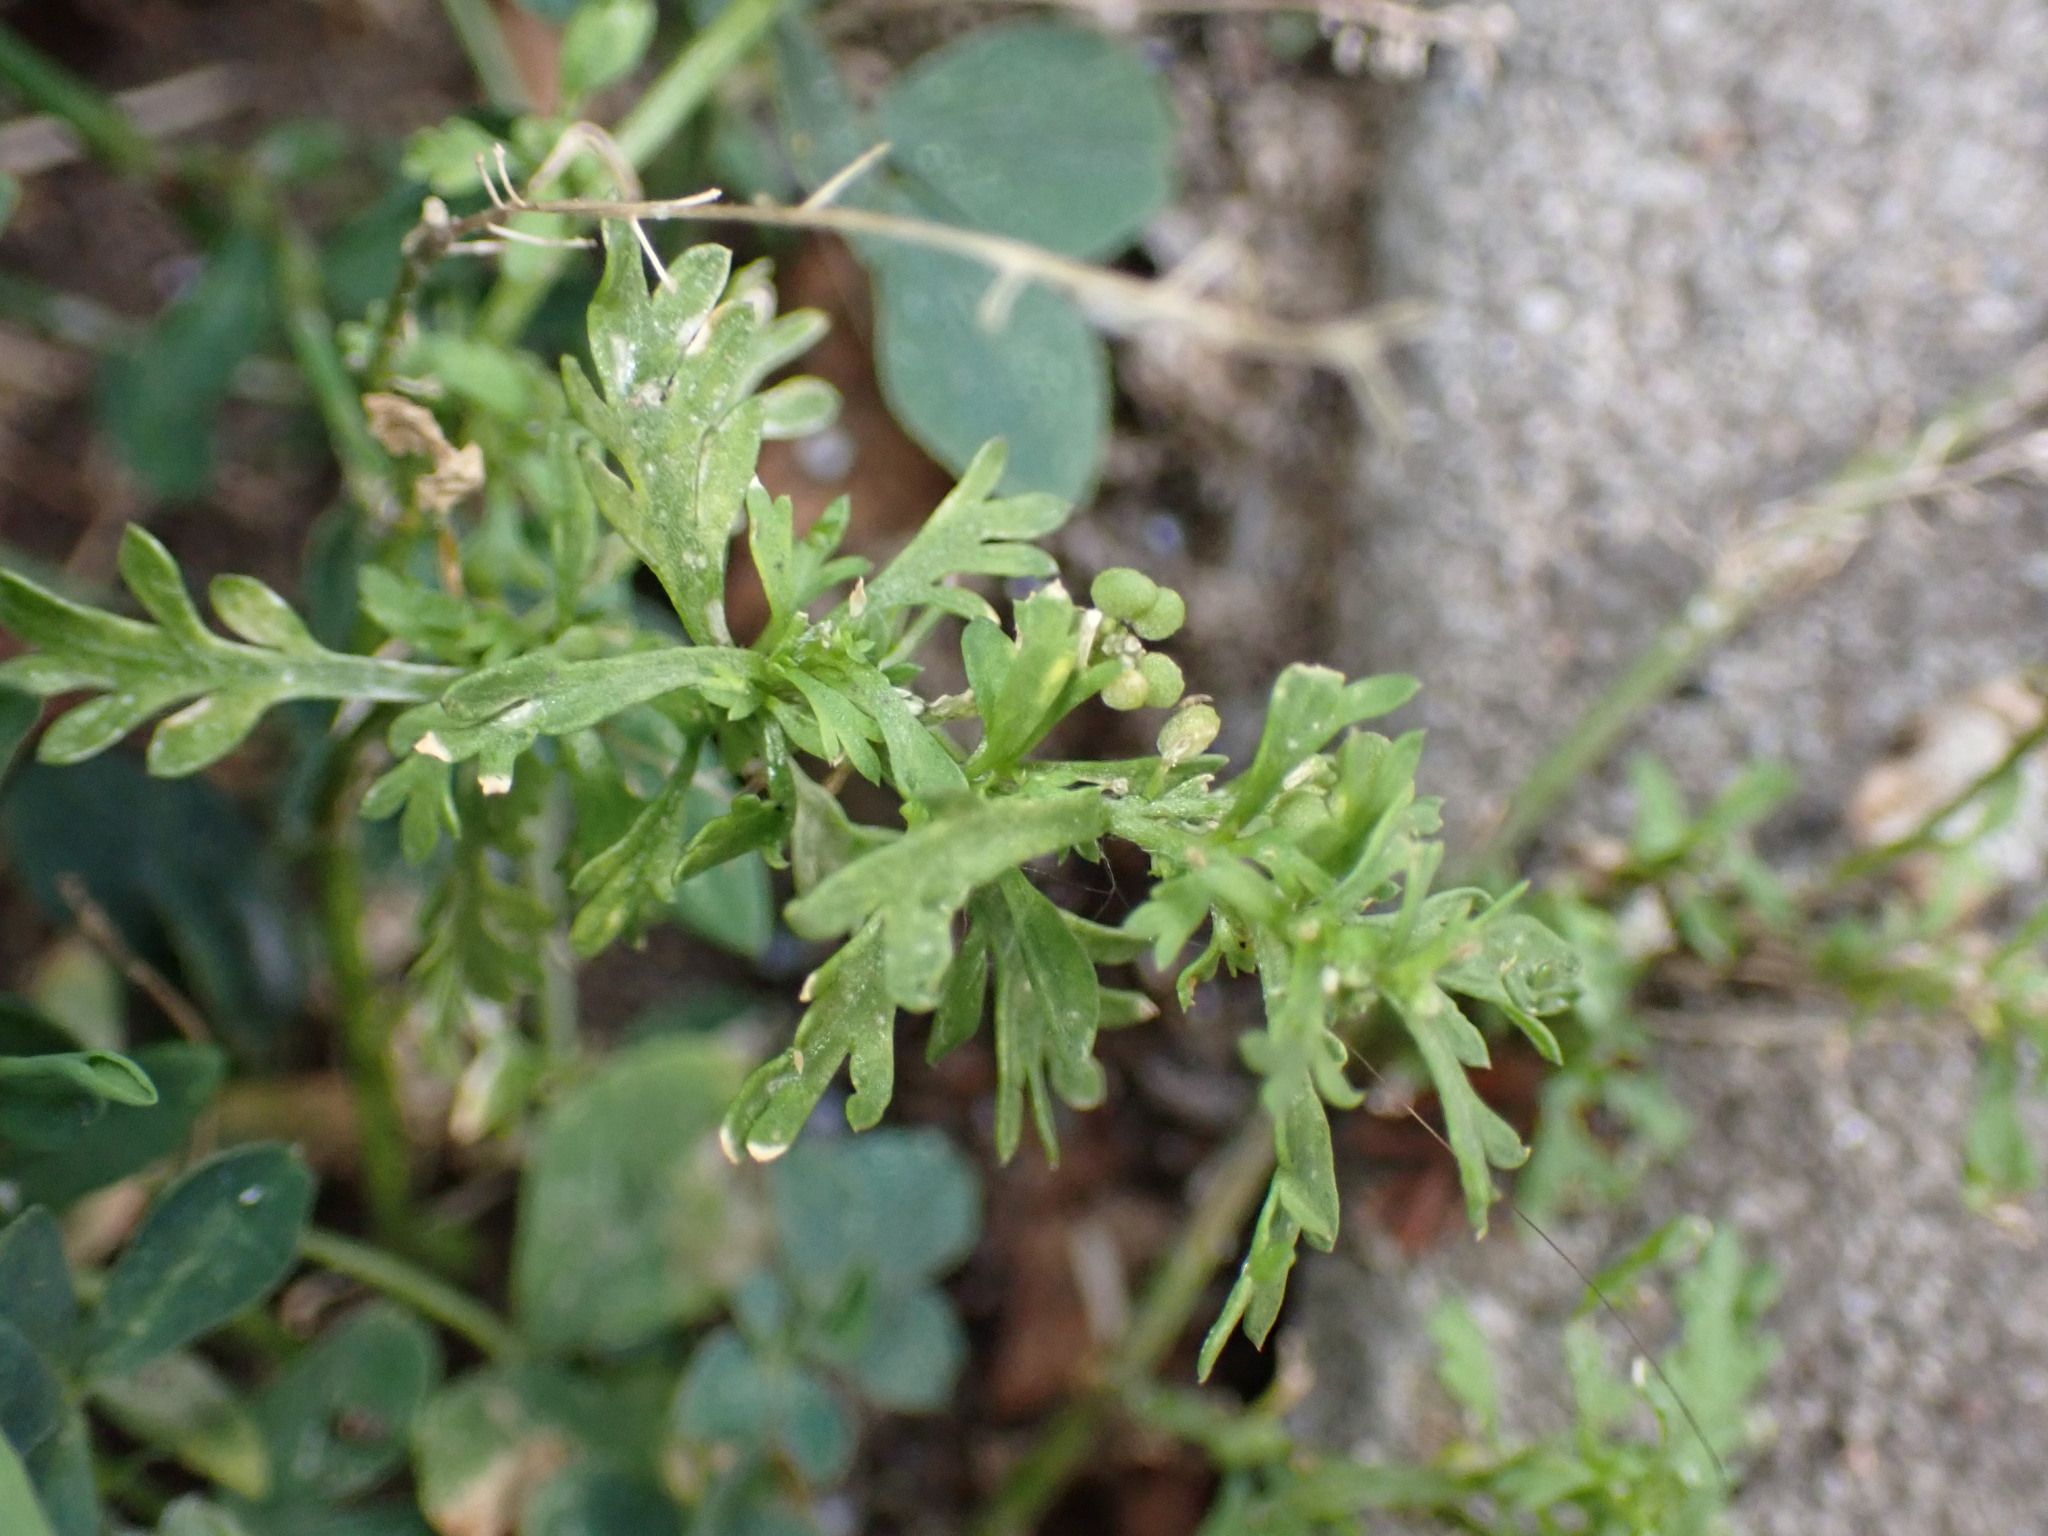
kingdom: Plantae
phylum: Tracheophyta
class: Magnoliopsida
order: Brassicales
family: Brassicaceae
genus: Lepidium
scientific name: Lepidium didymum
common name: Lesser swinecress
